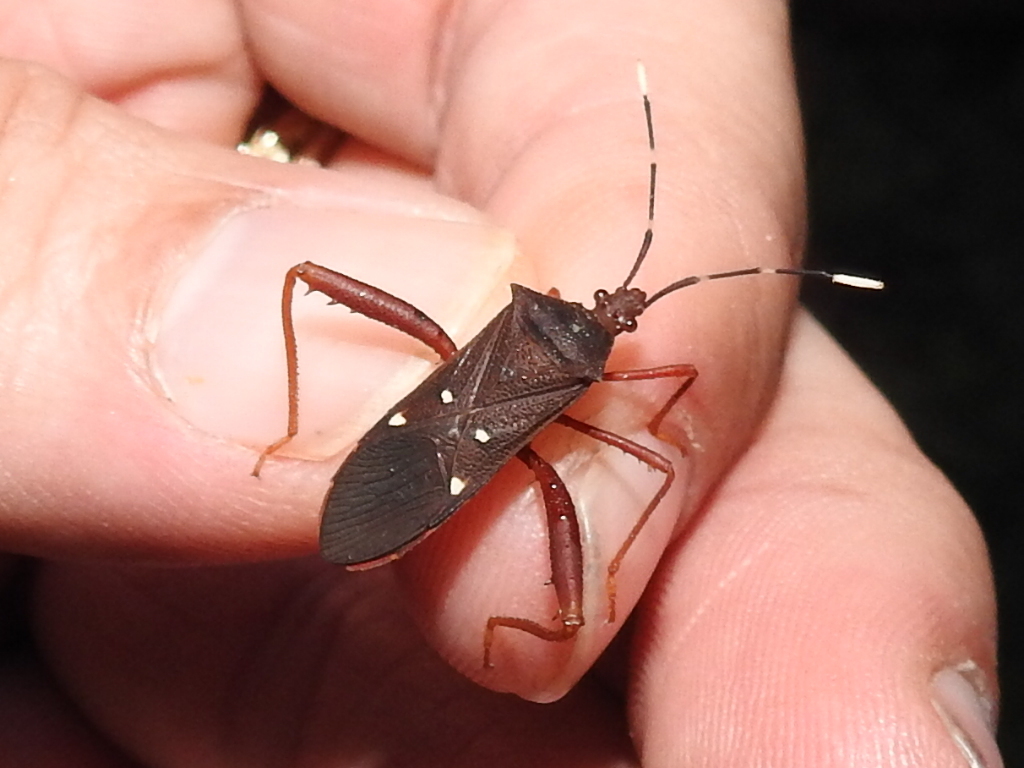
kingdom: Animalia
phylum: Arthropoda
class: Insecta
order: Hemiptera
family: Coreidae
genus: Leptoscelis
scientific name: Leptoscelis quadrisignatus
